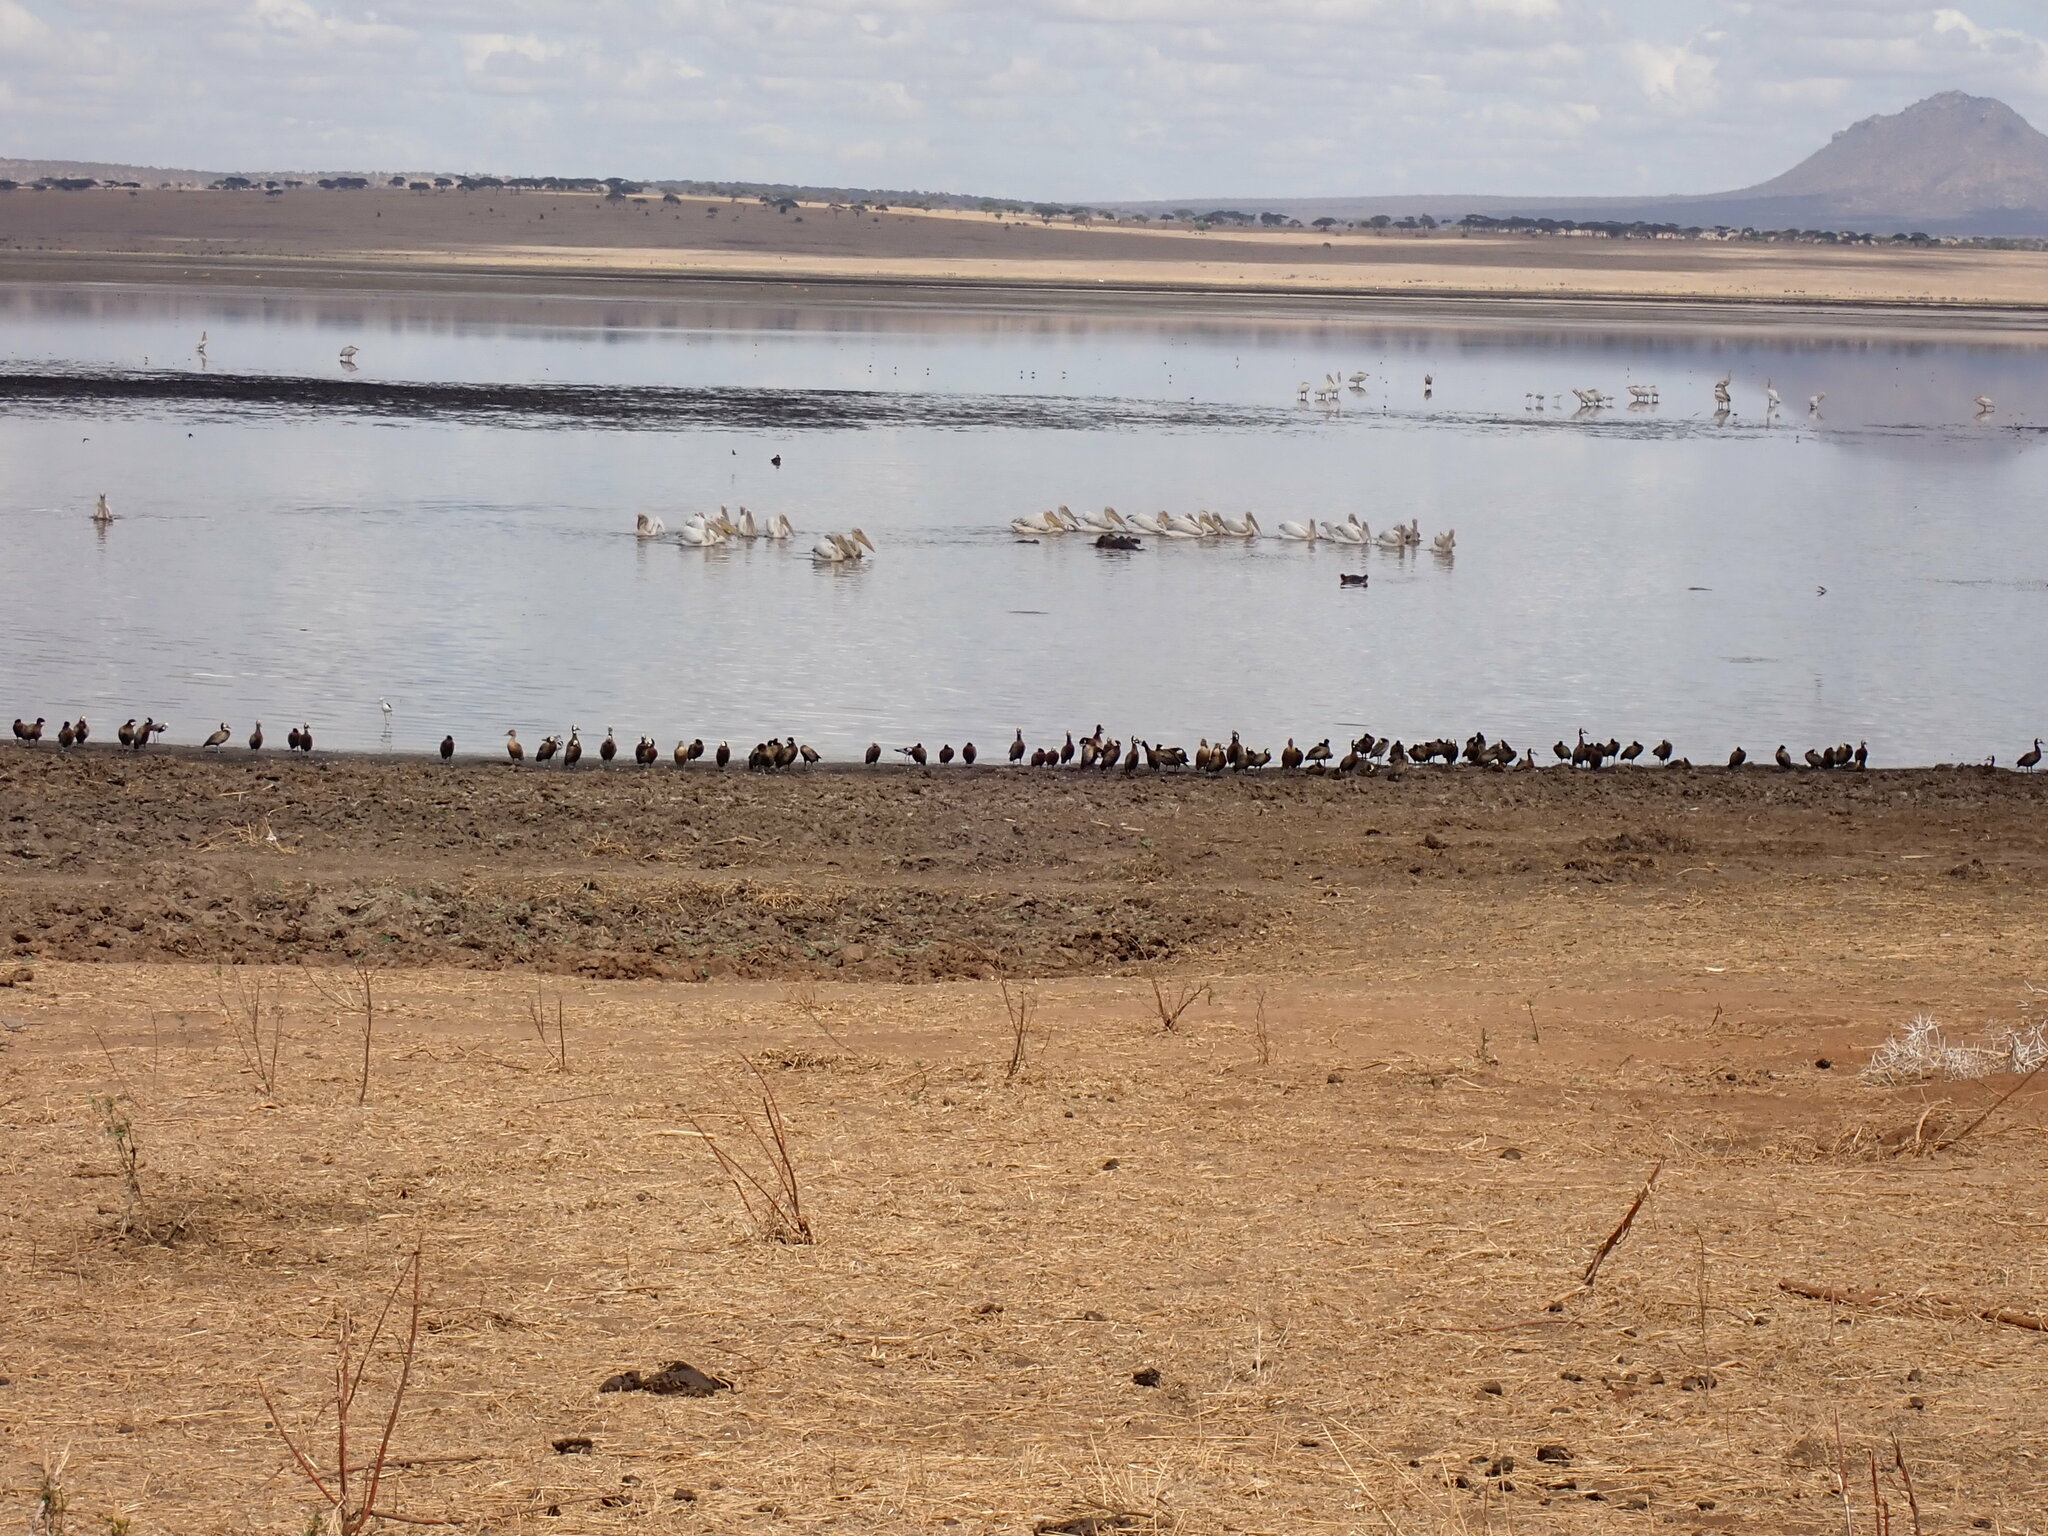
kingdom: Animalia
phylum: Chordata
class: Aves
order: Anseriformes
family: Anatidae
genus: Dendrocygna
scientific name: Dendrocygna viduata
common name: White-faced whistling duck
